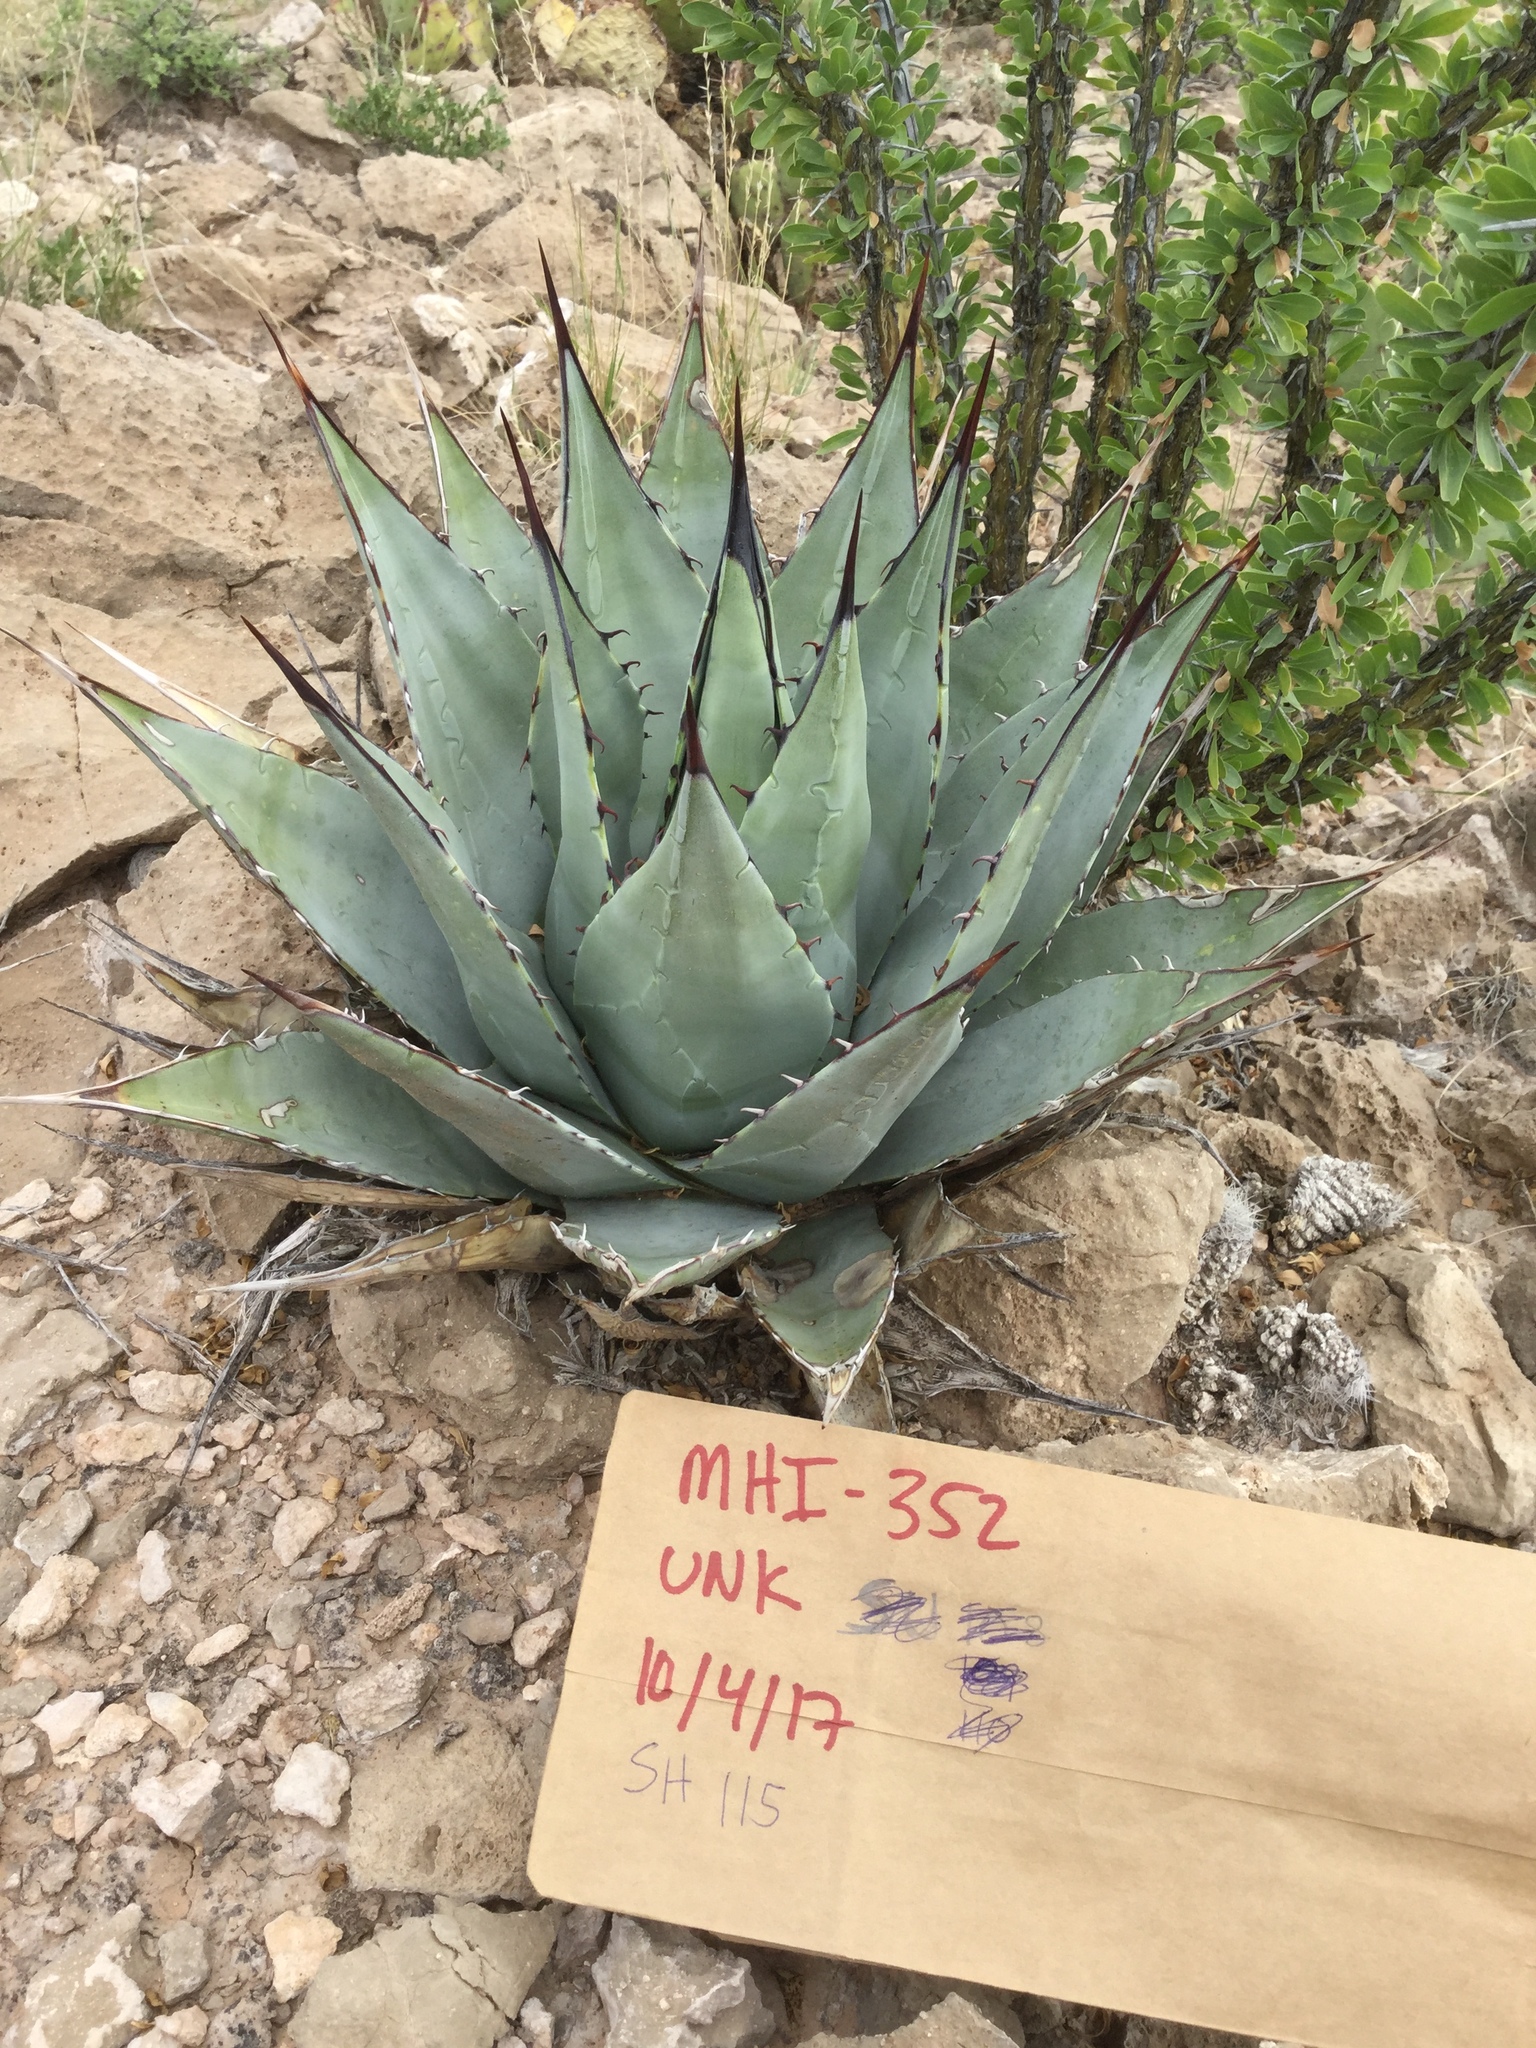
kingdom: Plantae
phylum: Tracheophyta
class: Liliopsida
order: Asparagales
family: Asparagaceae
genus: Agave
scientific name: Agave parryi
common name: Parry's agave
